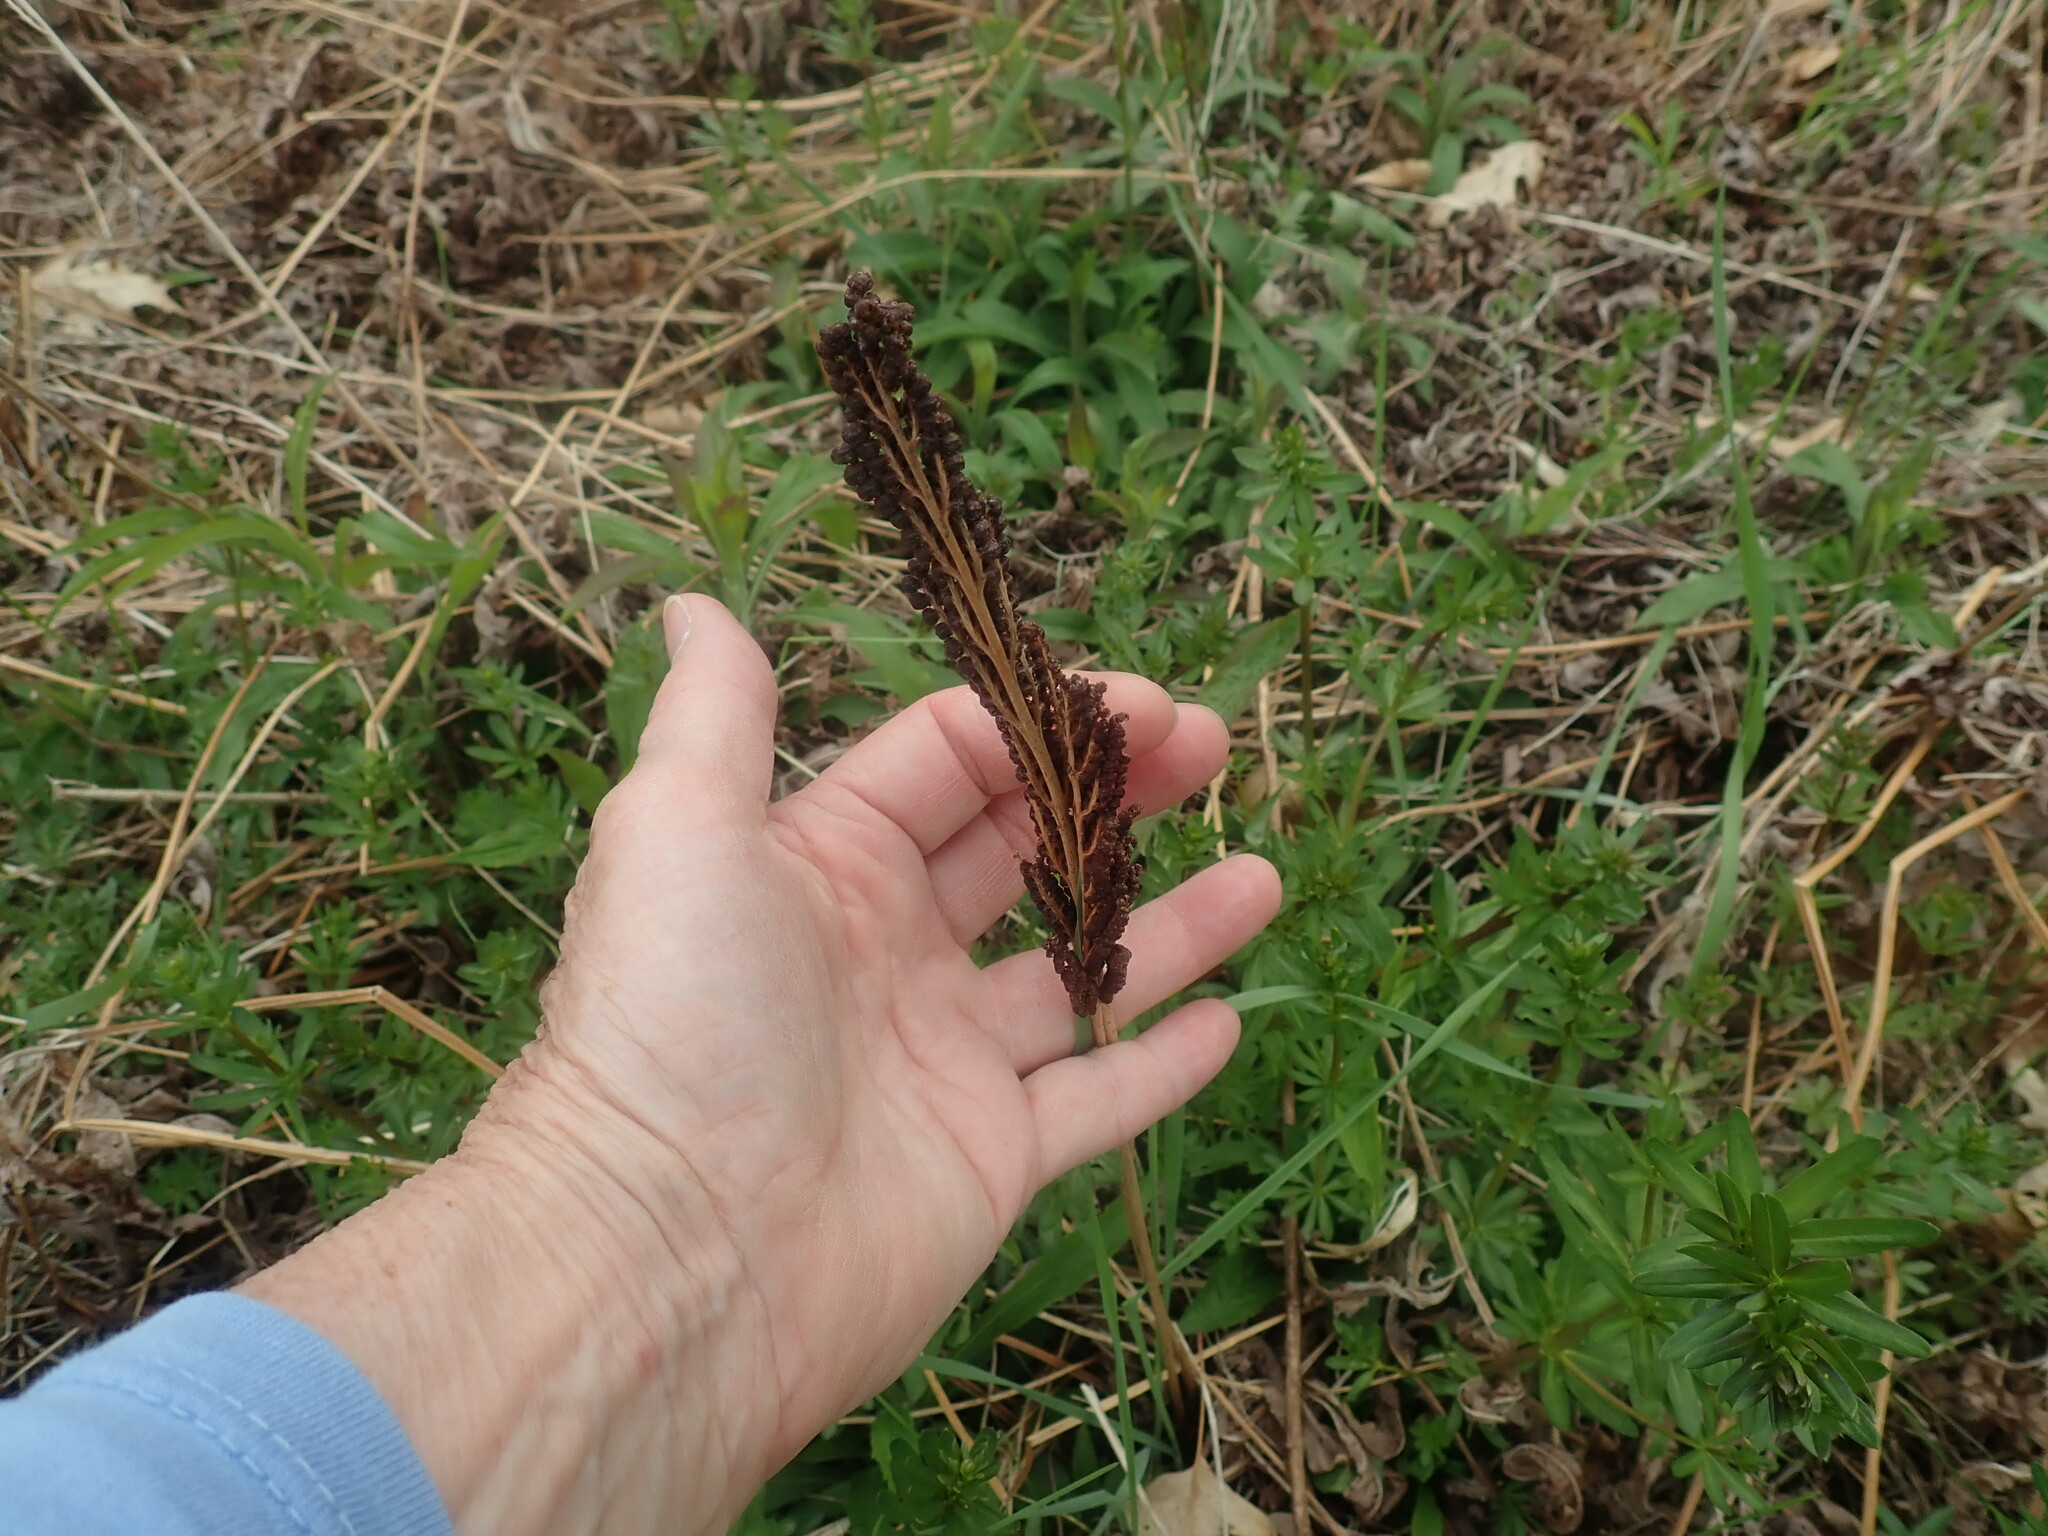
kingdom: Plantae
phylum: Tracheophyta
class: Polypodiopsida
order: Polypodiales
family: Onocleaceae
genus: Onoclea
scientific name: Onoclea sensibilis
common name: Sensitive fern
